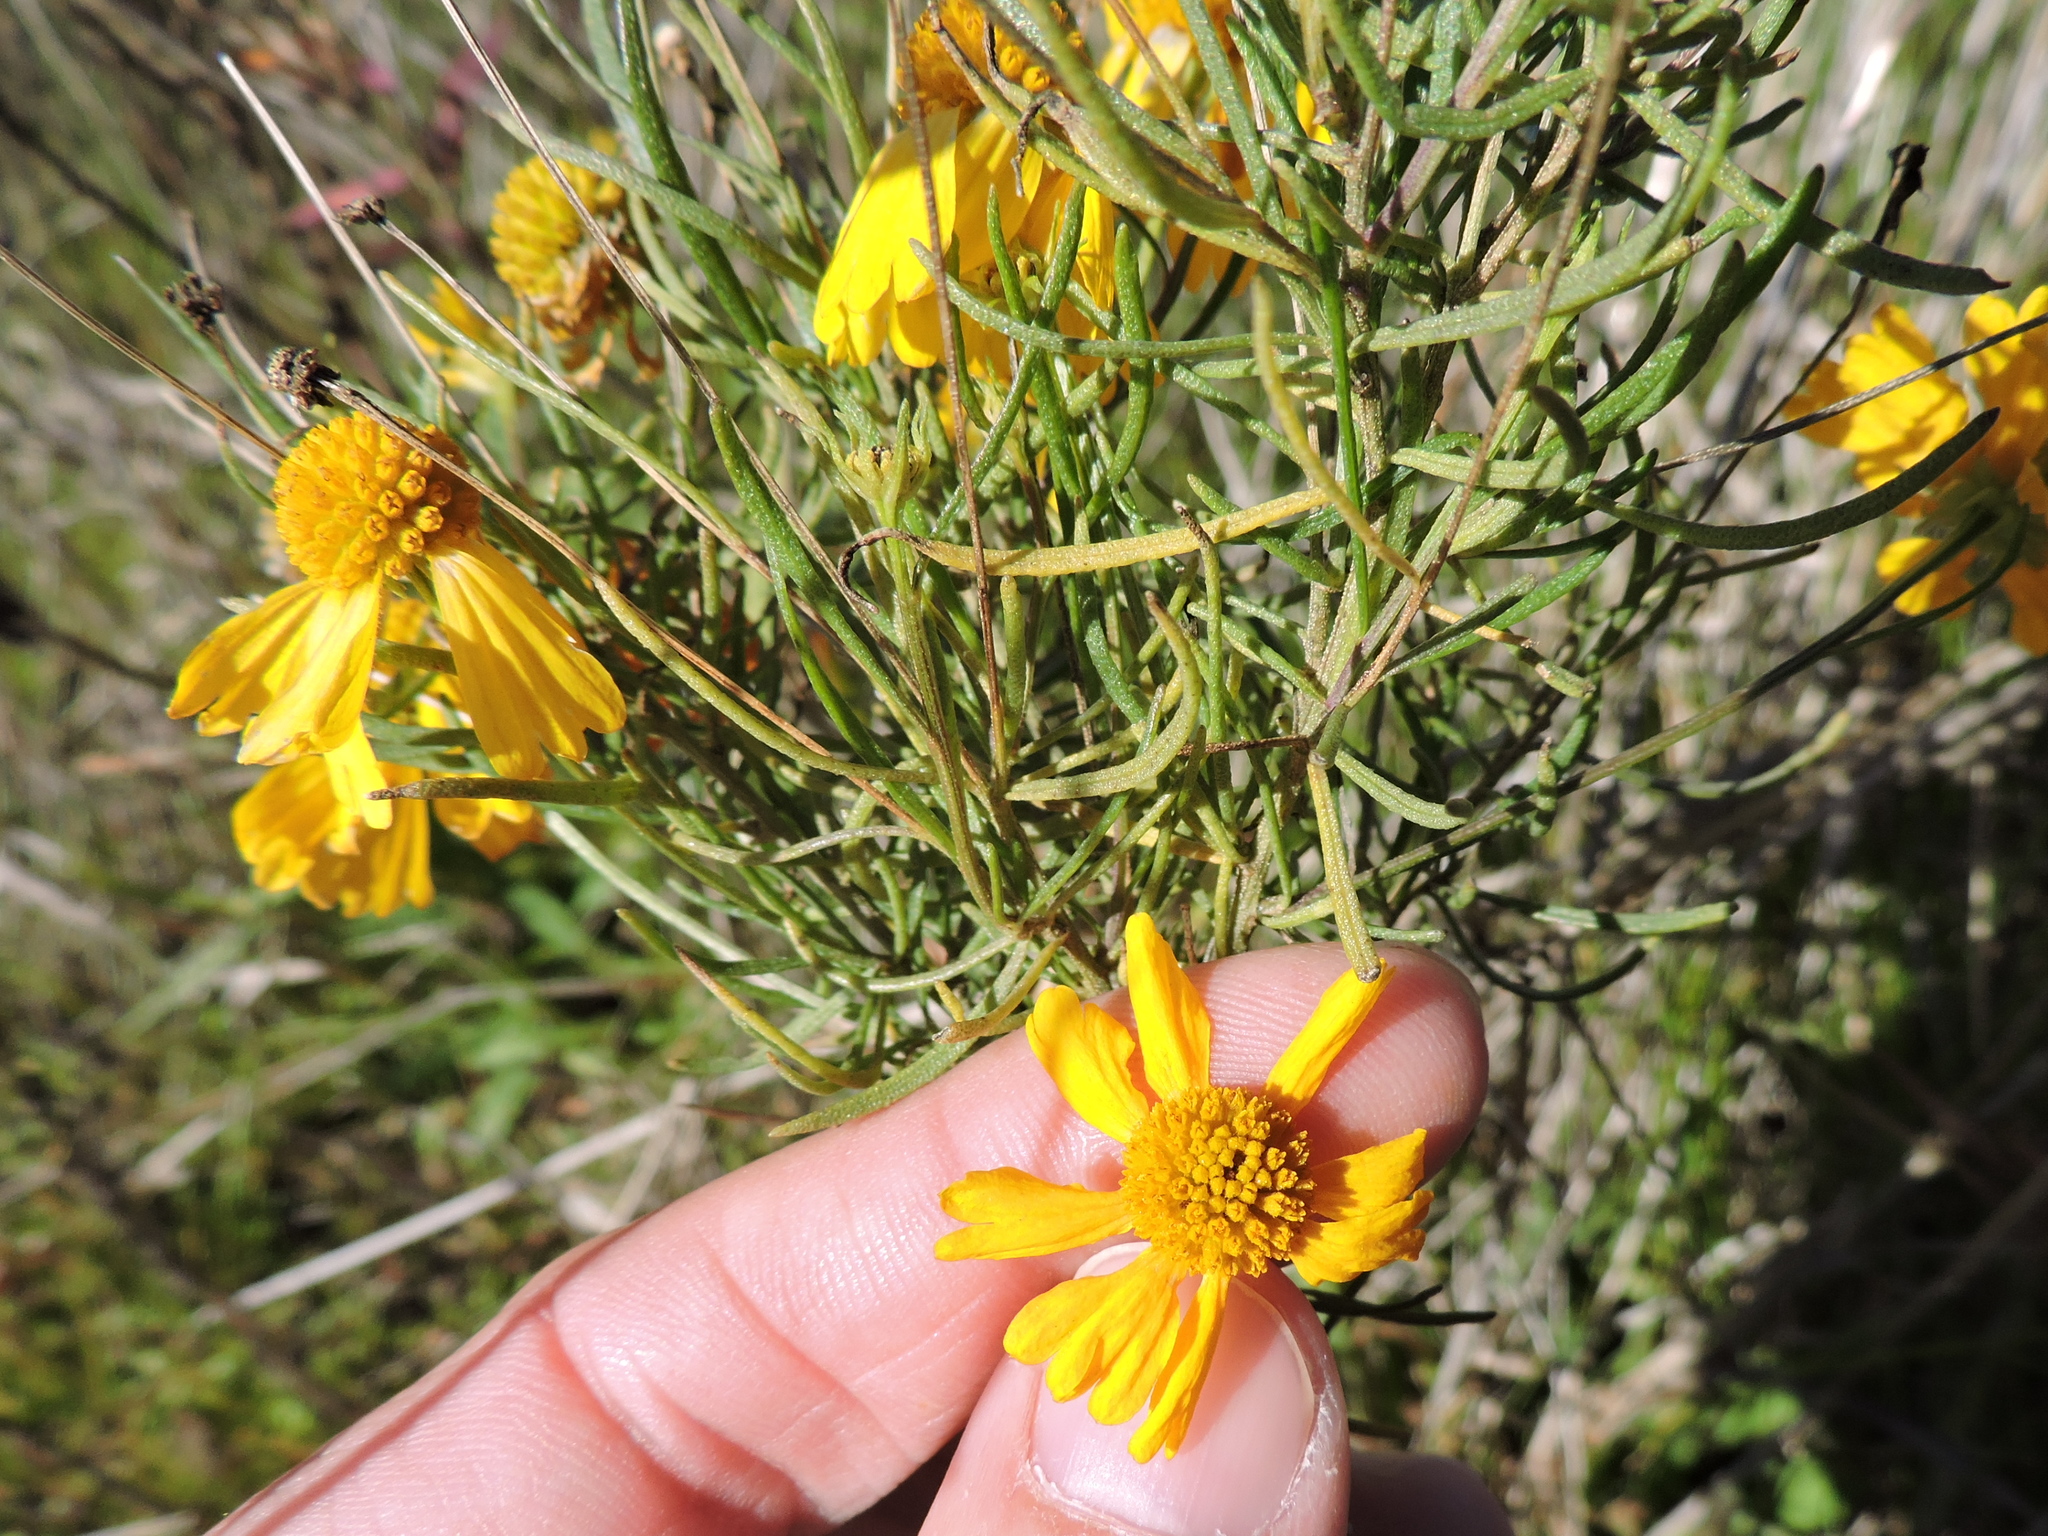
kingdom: Plantae
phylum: Tracheophyta
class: Magnoliopsida
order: Asterales
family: Asteraceae
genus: Helenium
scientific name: Helenium amarum
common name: Bitter sneezeweed
